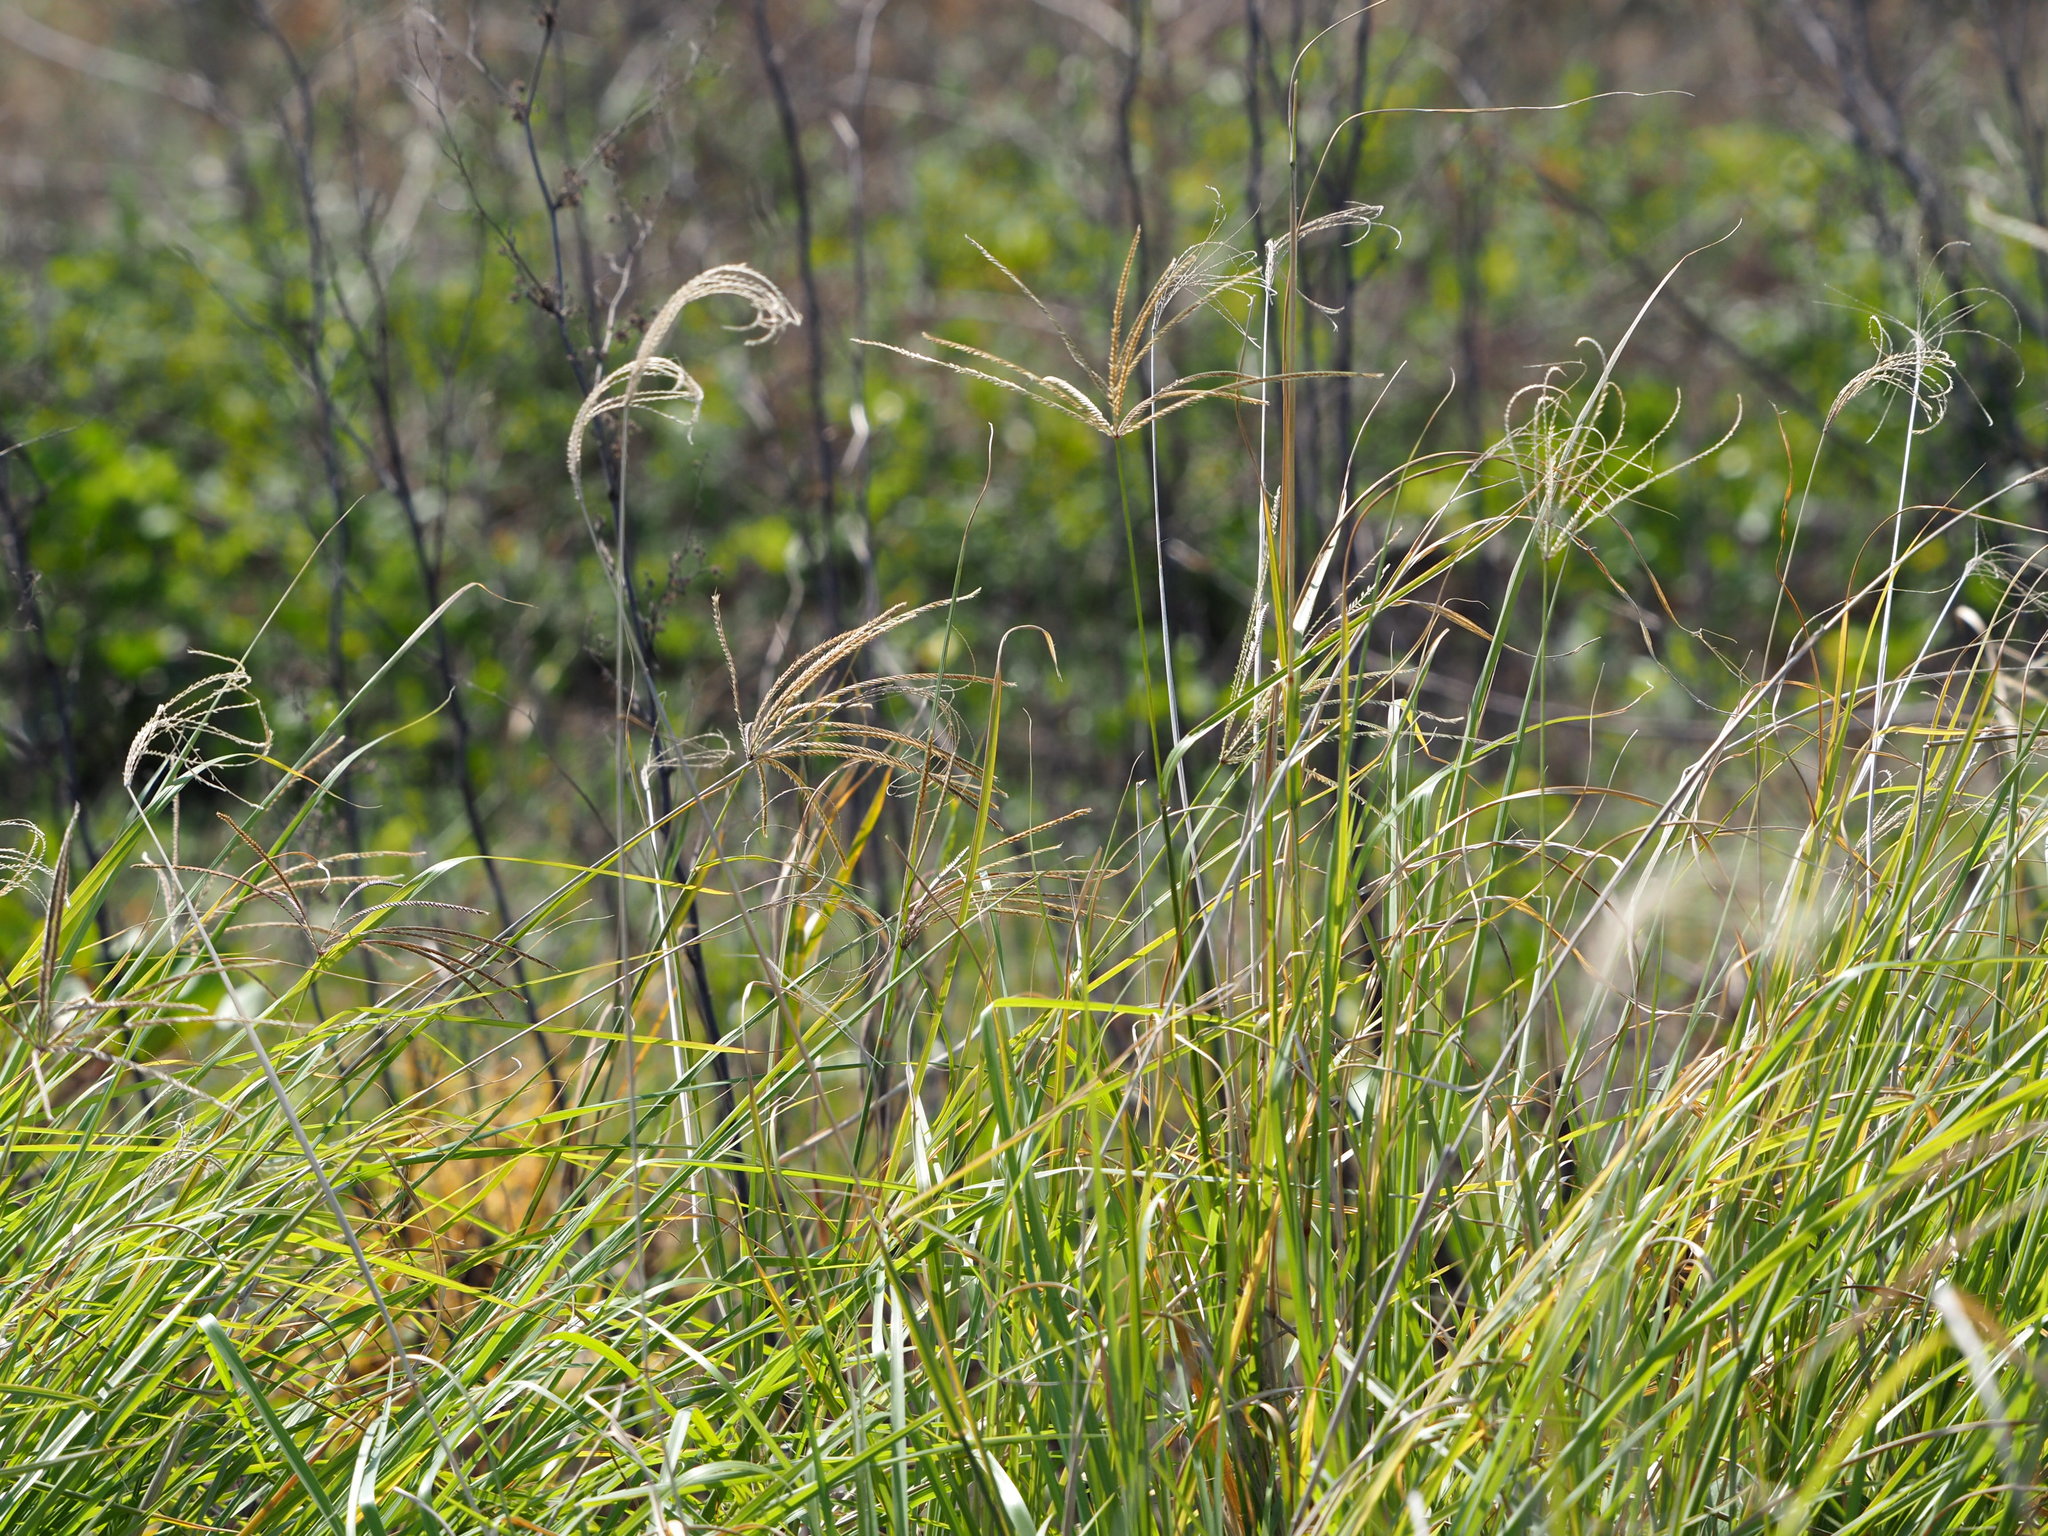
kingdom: Plantae
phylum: Tracheophyta
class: Liliopsida
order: Poales
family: Poaceae
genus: Chloris
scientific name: Chloris gayana
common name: Rhodes grass
